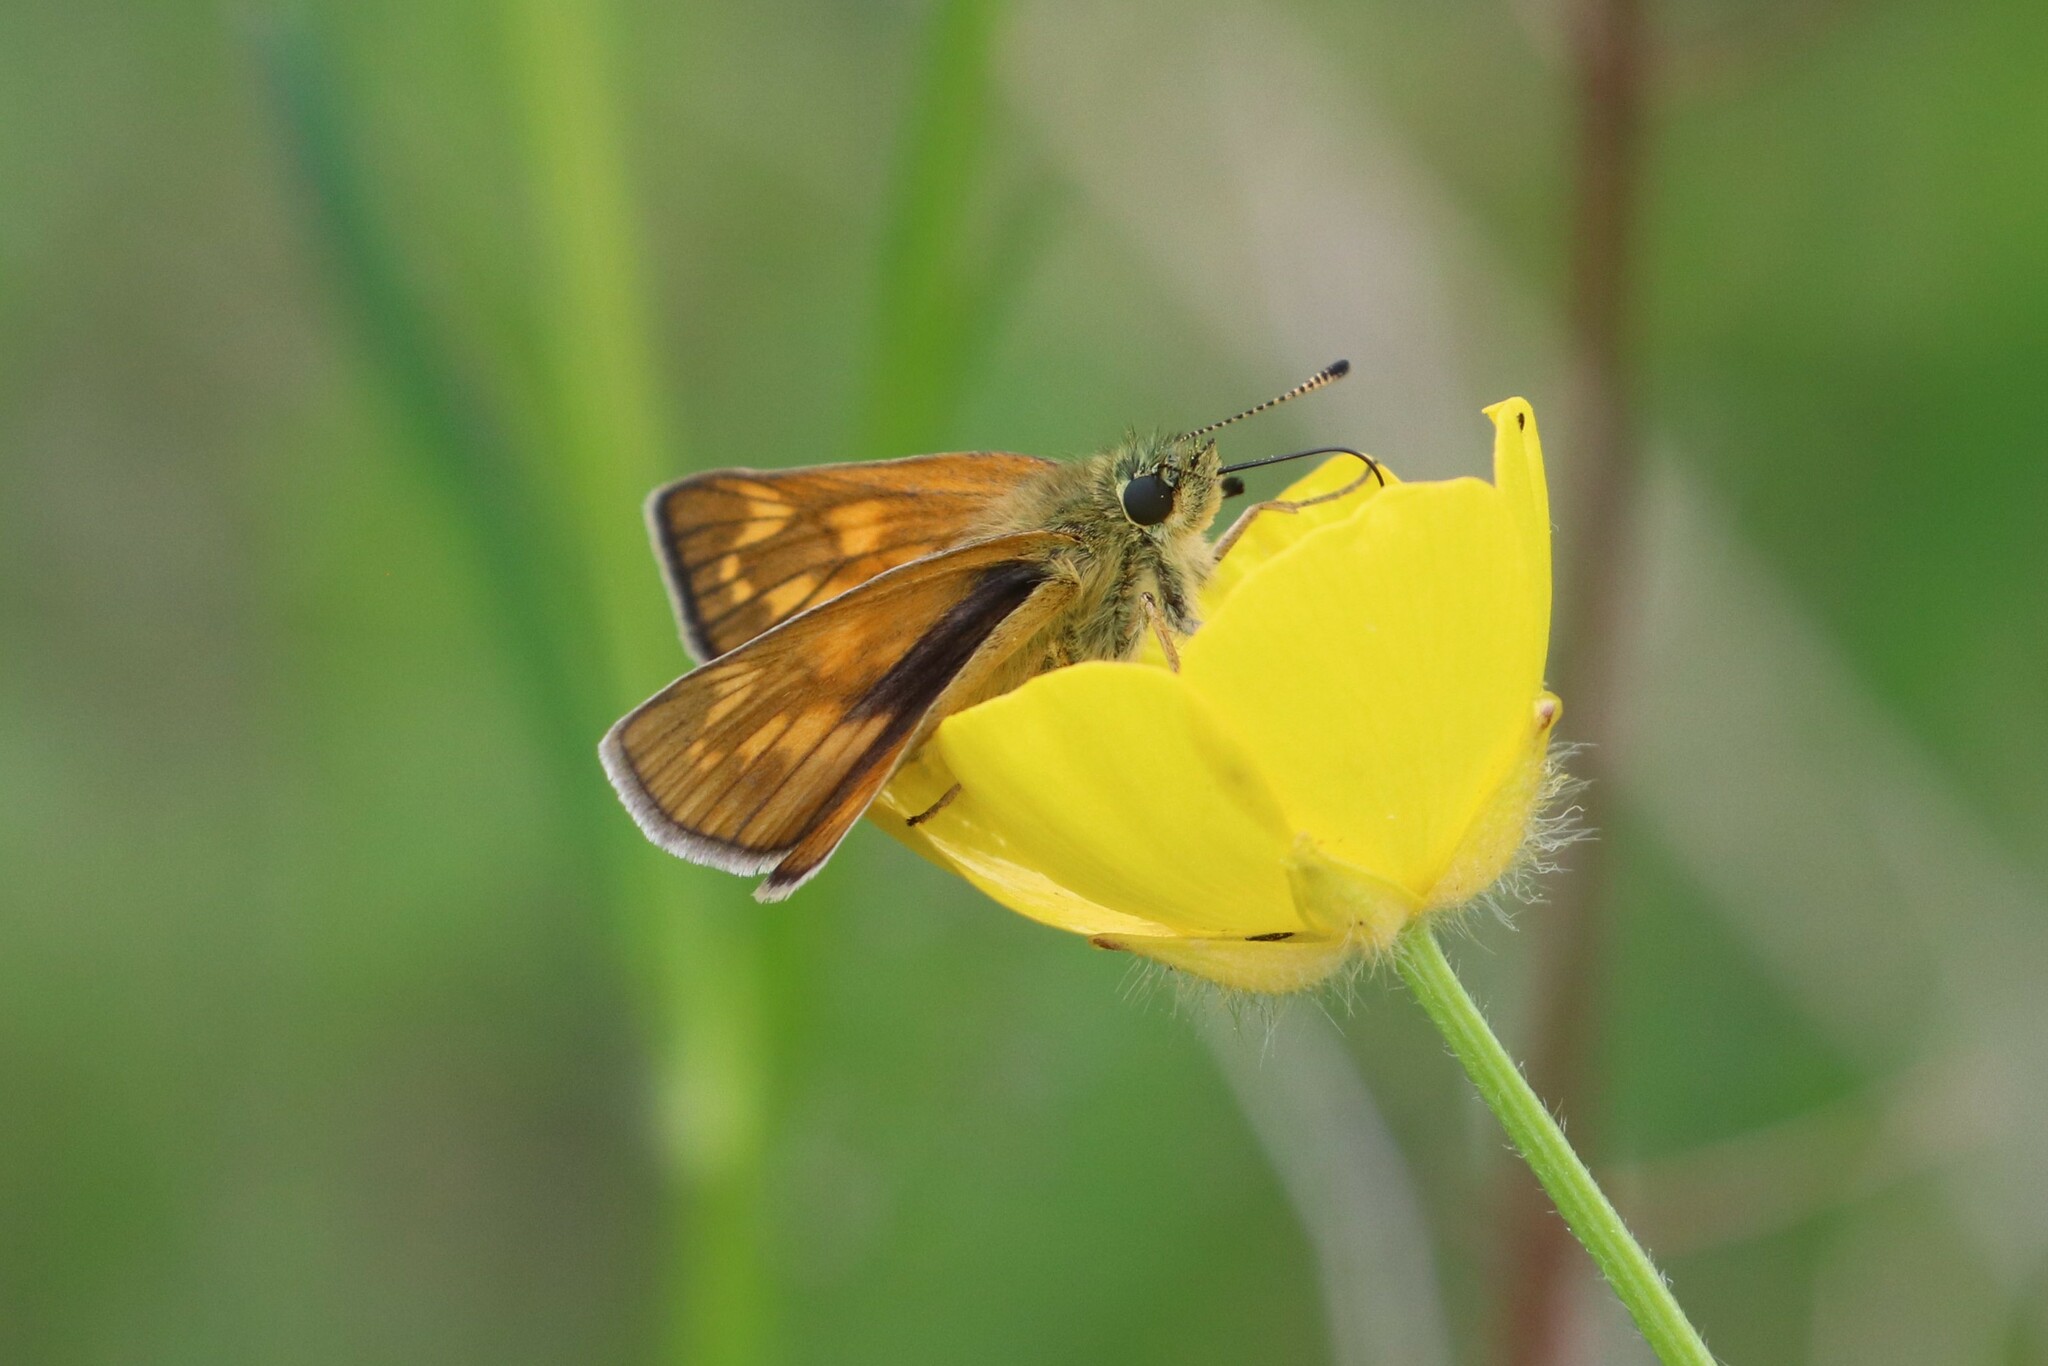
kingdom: Animalia
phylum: Arthropoda
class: Insecta
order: Lepidoptera
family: Hesperiidae
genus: Ochlodes
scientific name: Ochlodes venata
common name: Large skipper
